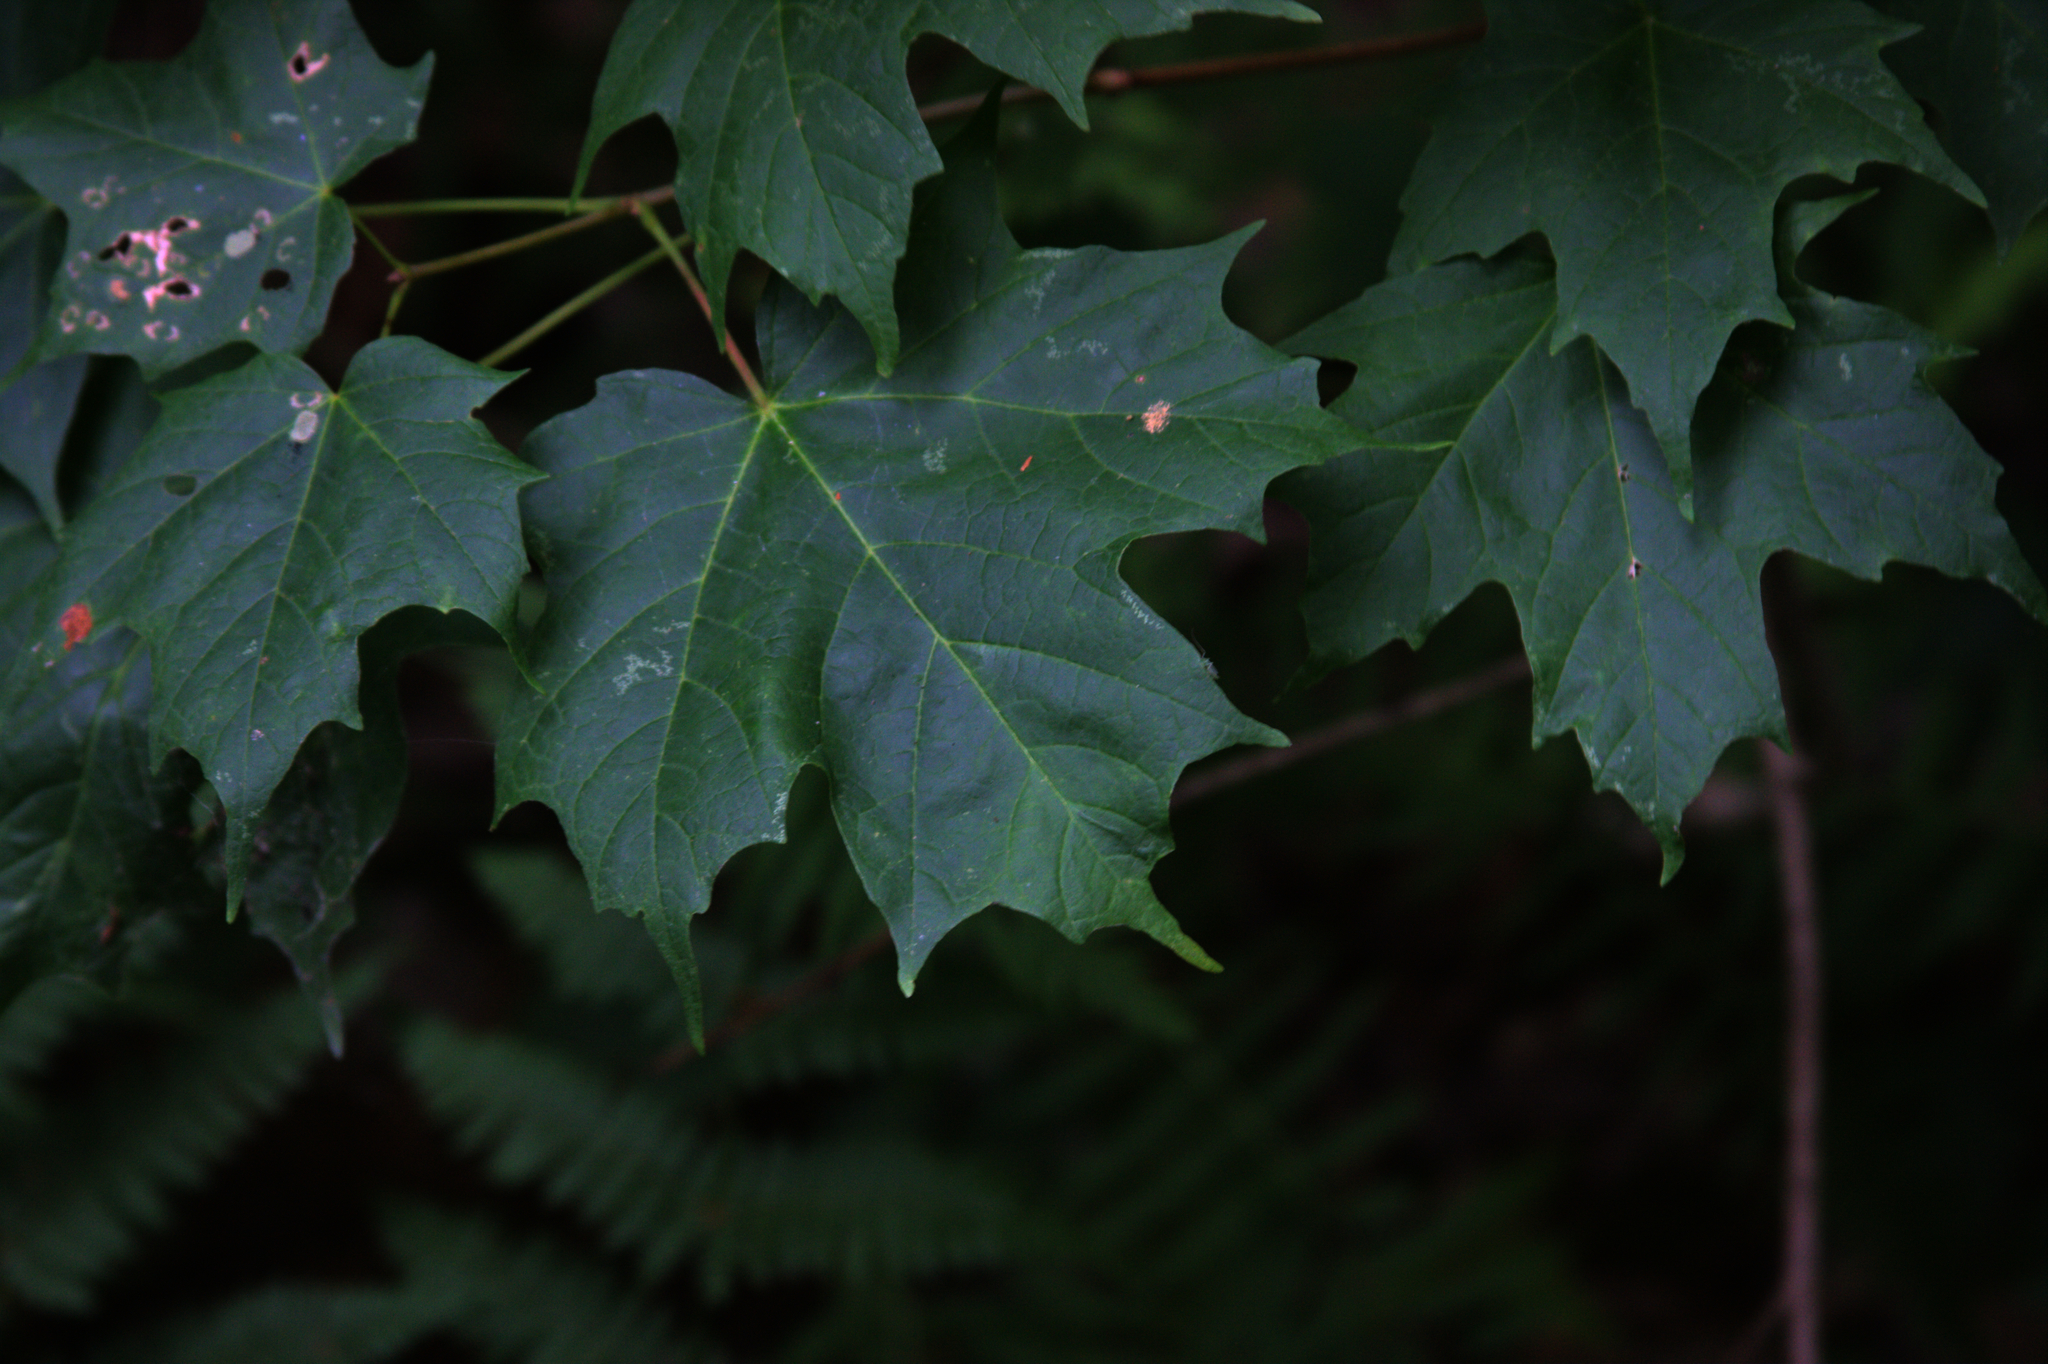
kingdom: Plantae
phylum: Tracheophyta
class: Magnoliopsida
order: Sapindales
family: Sapindaceae
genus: Acer
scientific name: Acer saccharum
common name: Sugar maple
